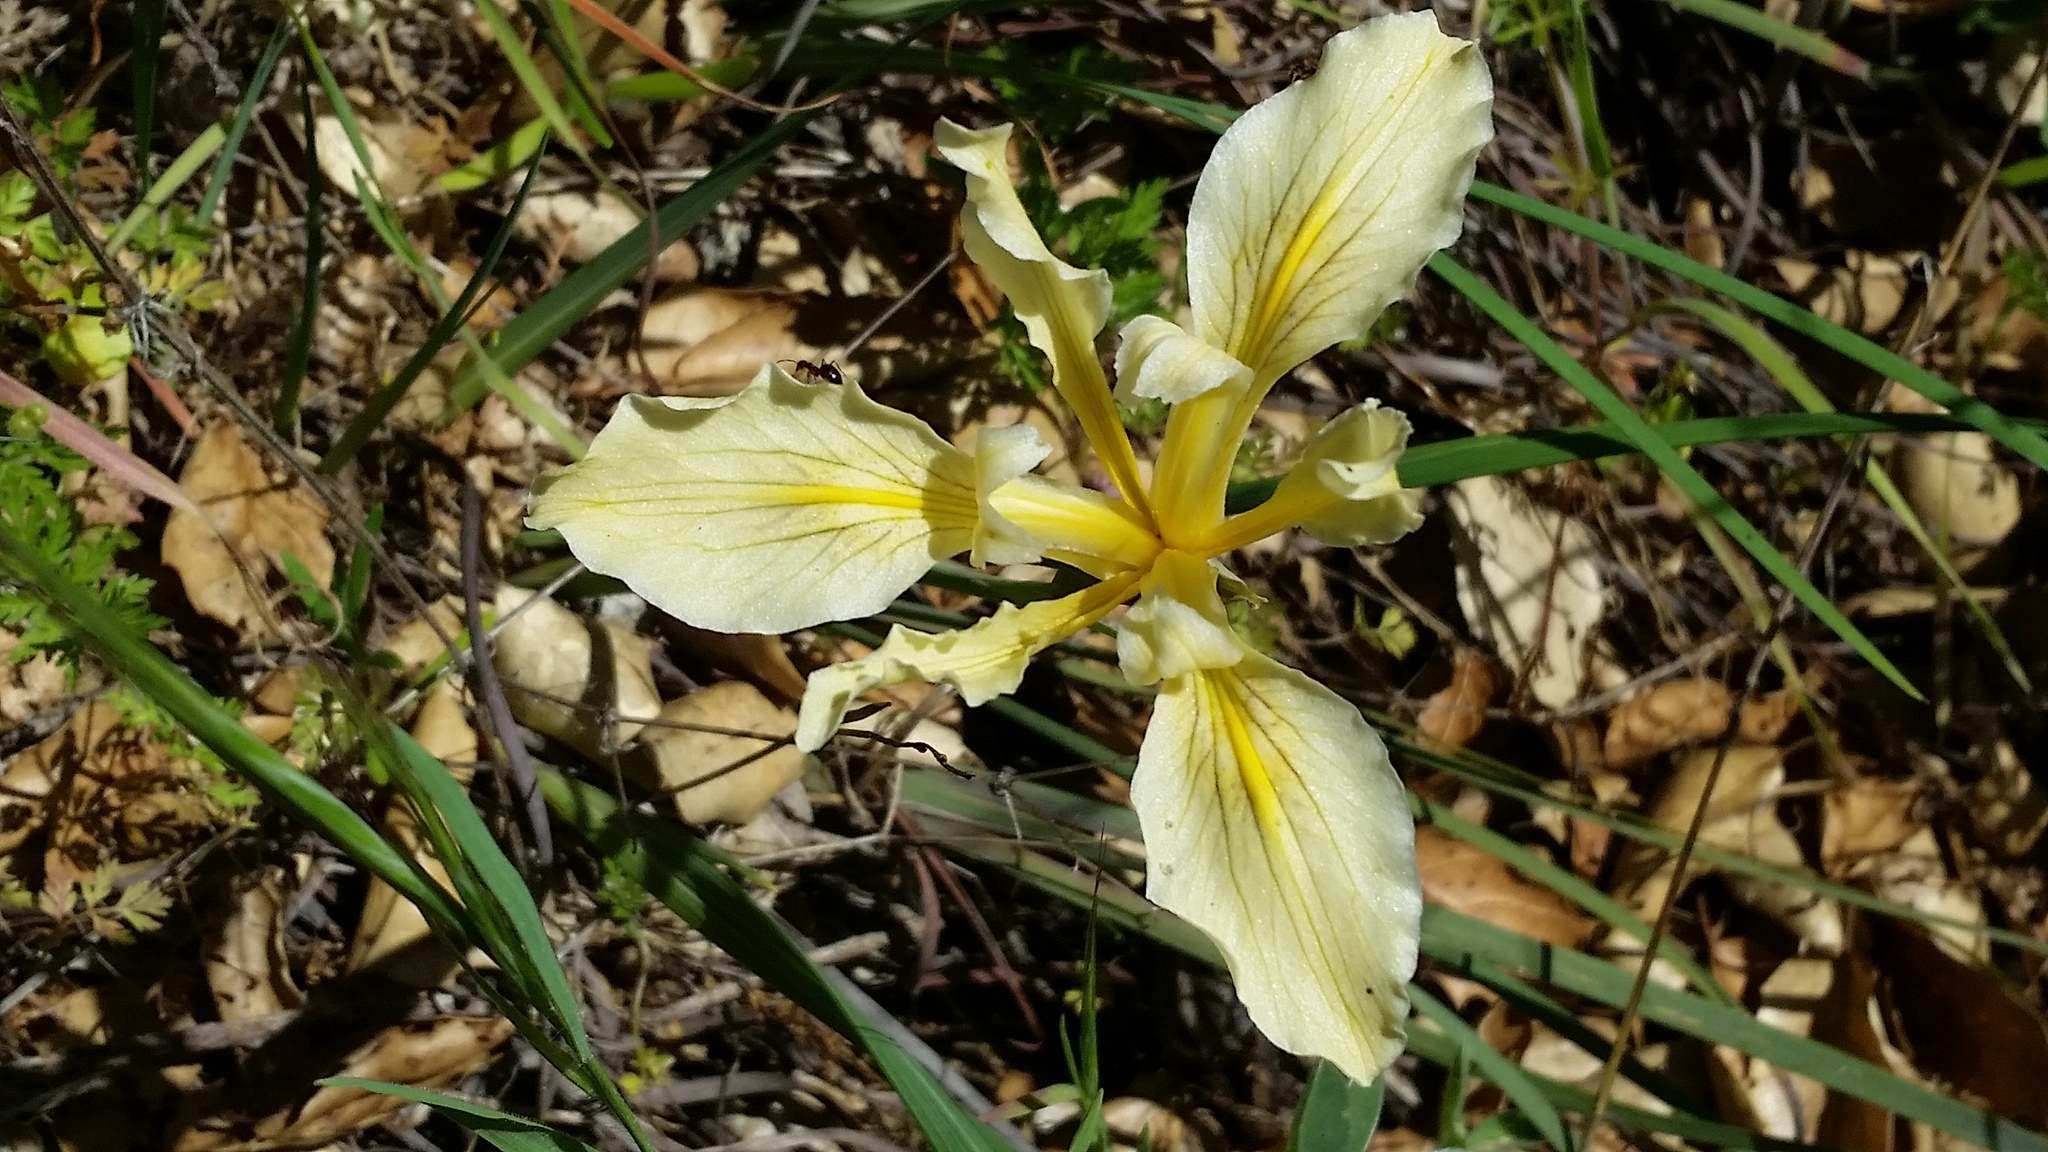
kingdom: Plantae
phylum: Tracheophyta
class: Liliopsida
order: Asparagales
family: Iridaceae
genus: Iris
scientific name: Iris fernaldii
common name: Fernald's iris
